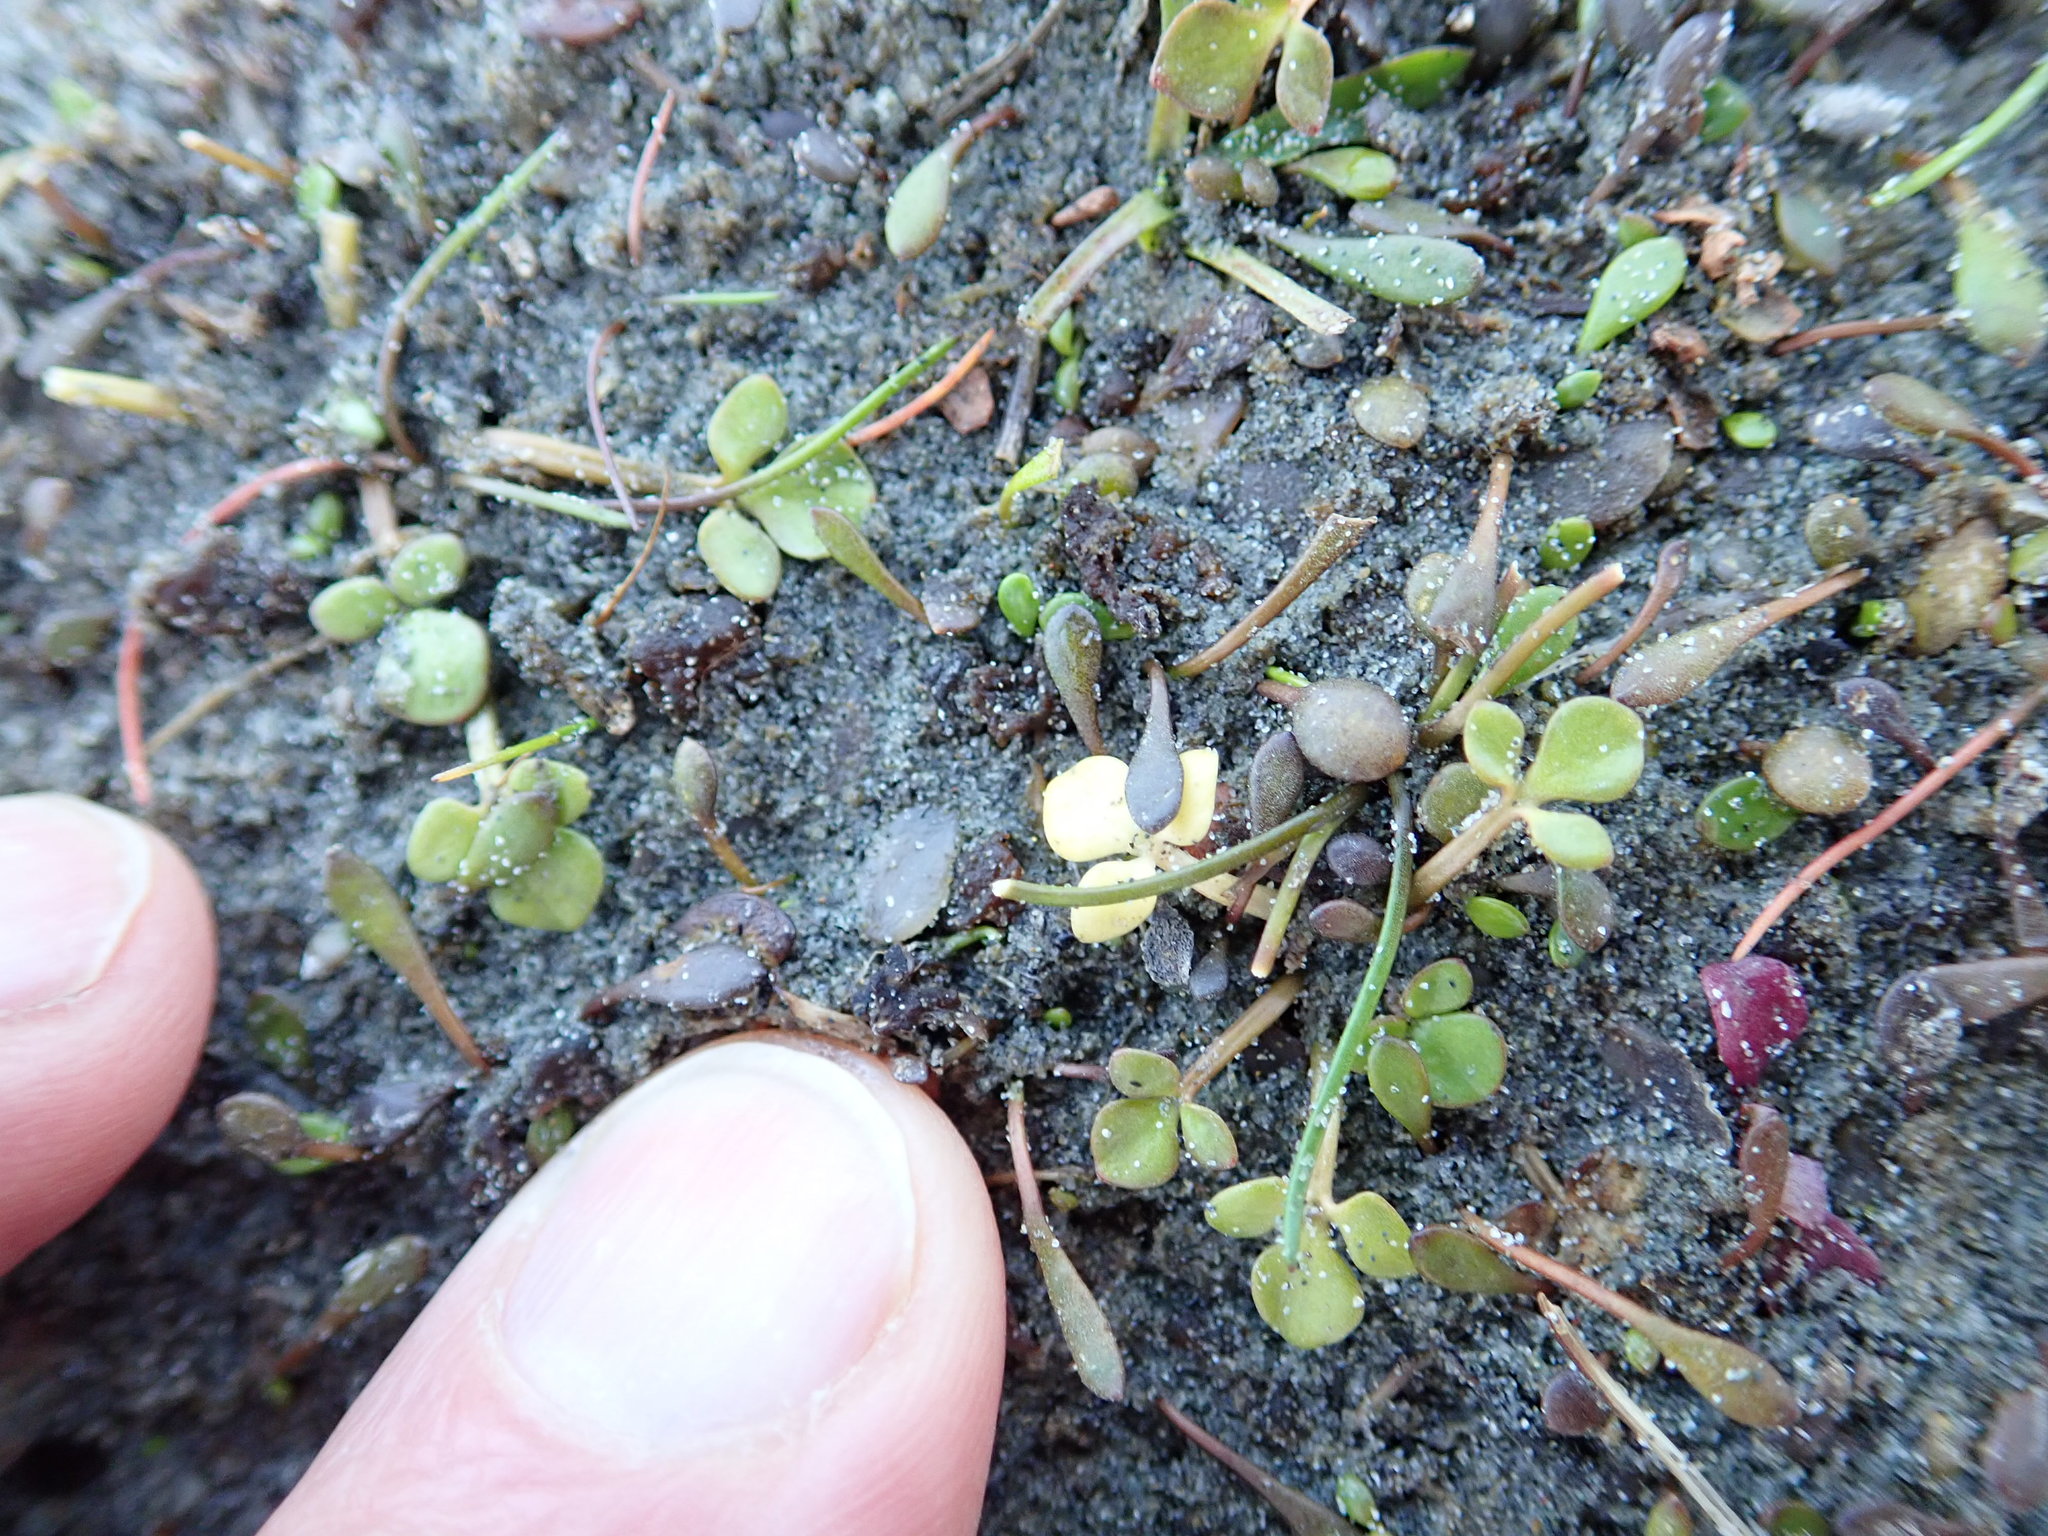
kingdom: Plantae
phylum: Tracheophyta
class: Magnoliopsida
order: Ranunculales
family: Ranunculaceae
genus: Ranunculus
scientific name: Ranunculus acaulis
